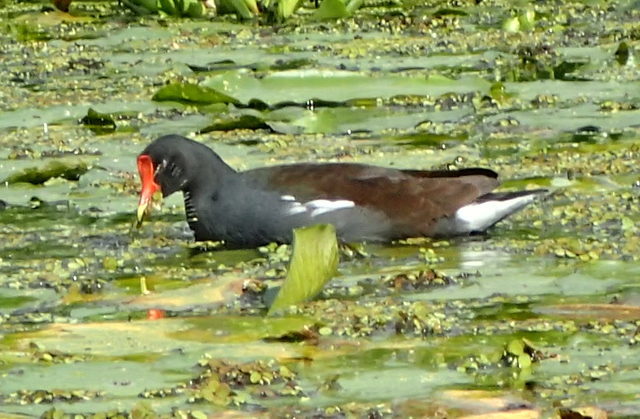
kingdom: Animalia
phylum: Chordata
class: Aves
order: Gruiformes
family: Rallidae
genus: Gallinula
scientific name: Gallinula chloropus
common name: Common moorhen
